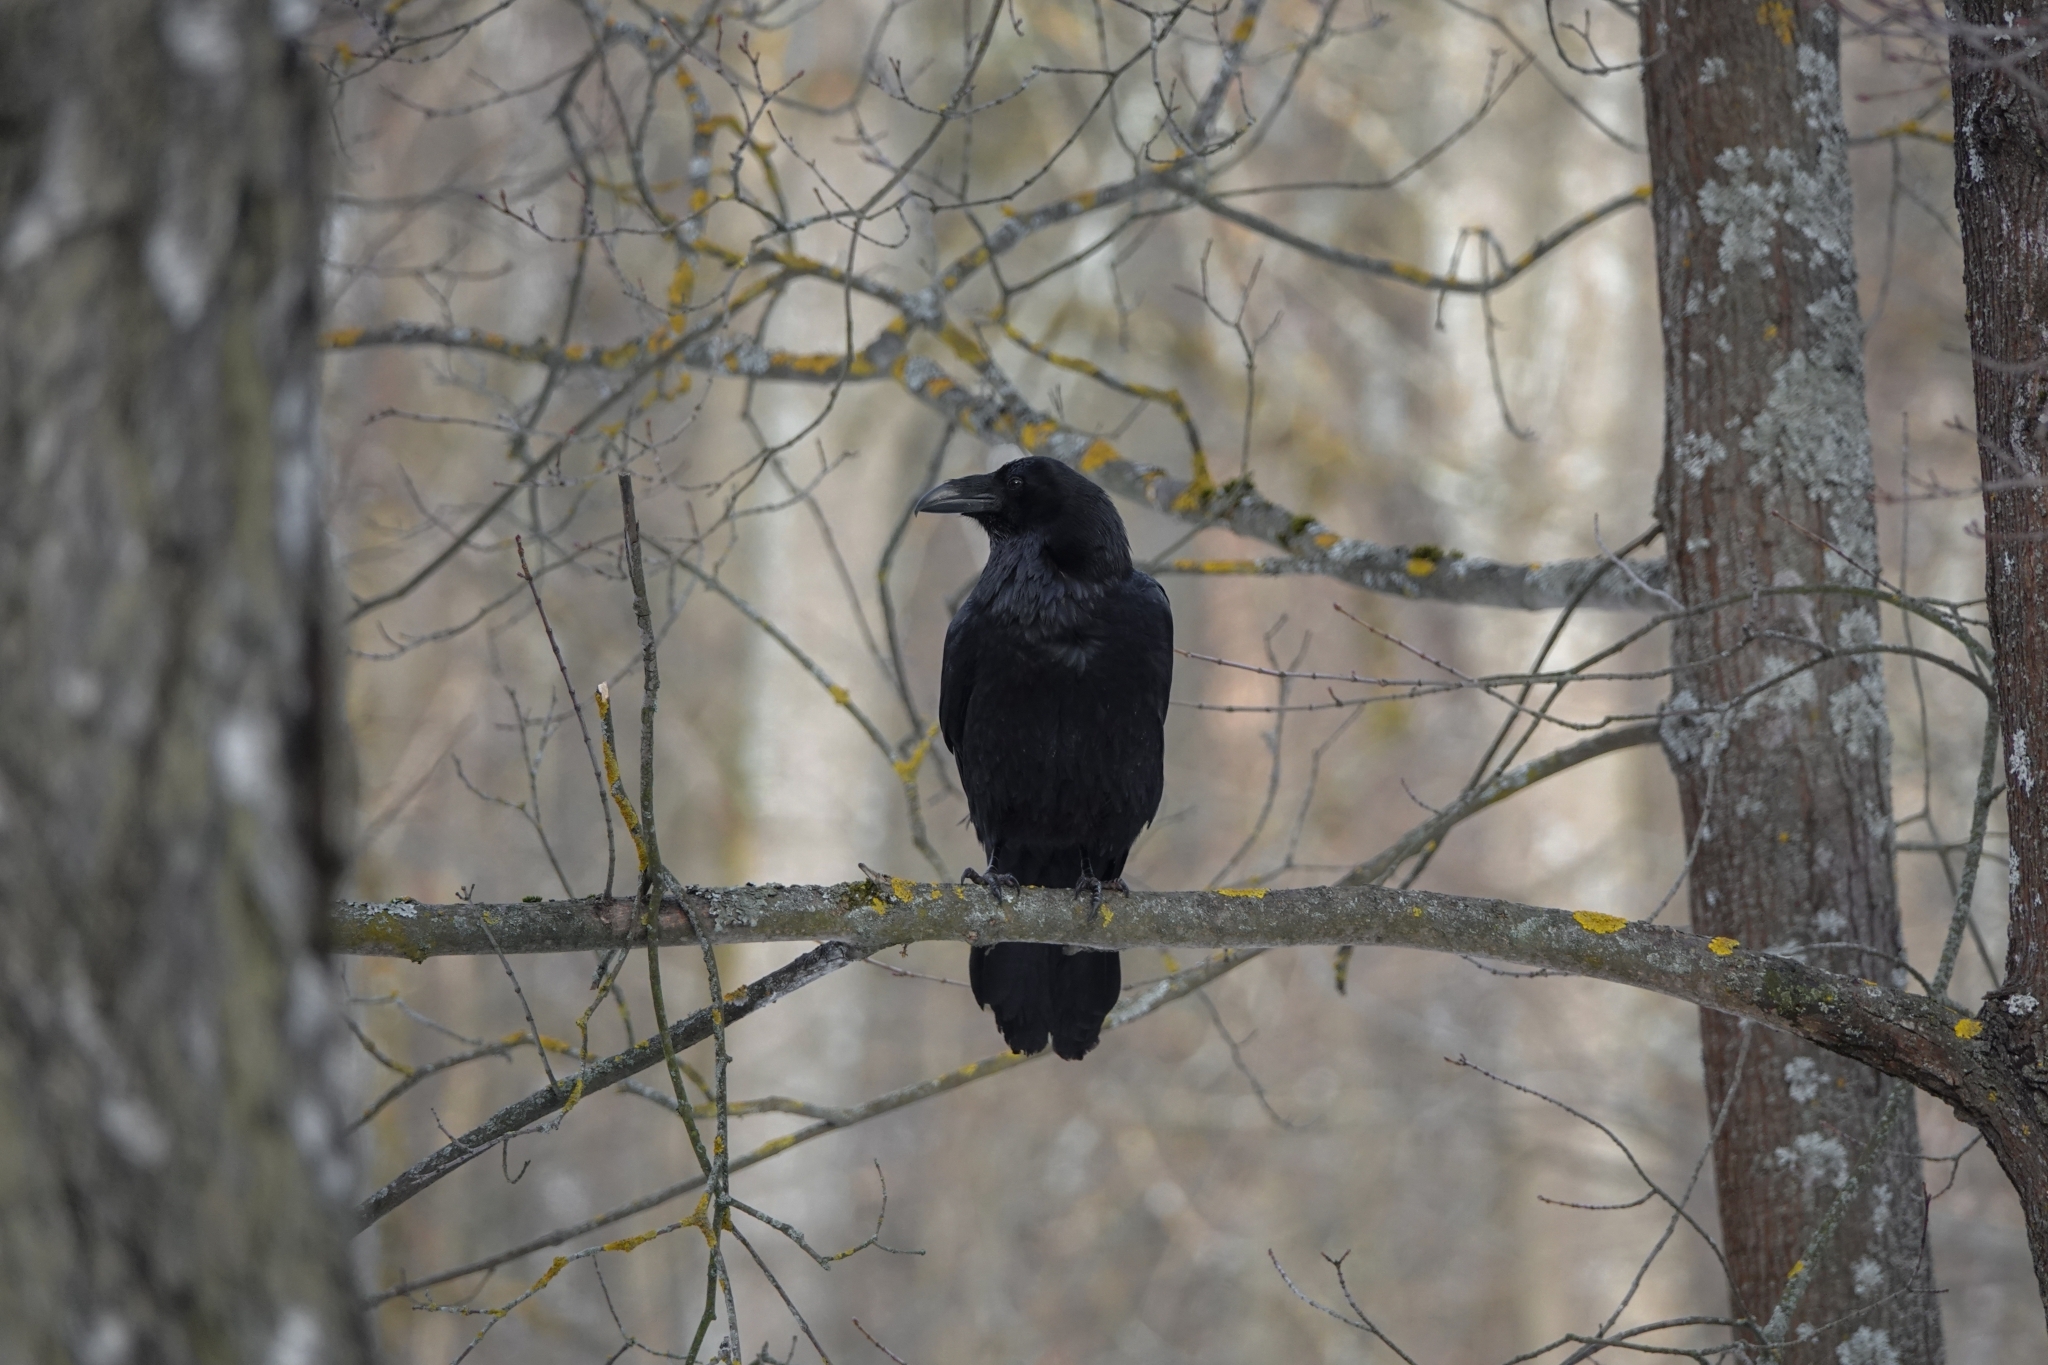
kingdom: Animalia
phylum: Chordata
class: Aves
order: Passeriformes
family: Corvidae
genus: Corvus
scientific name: Corvus corax
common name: Common raven
